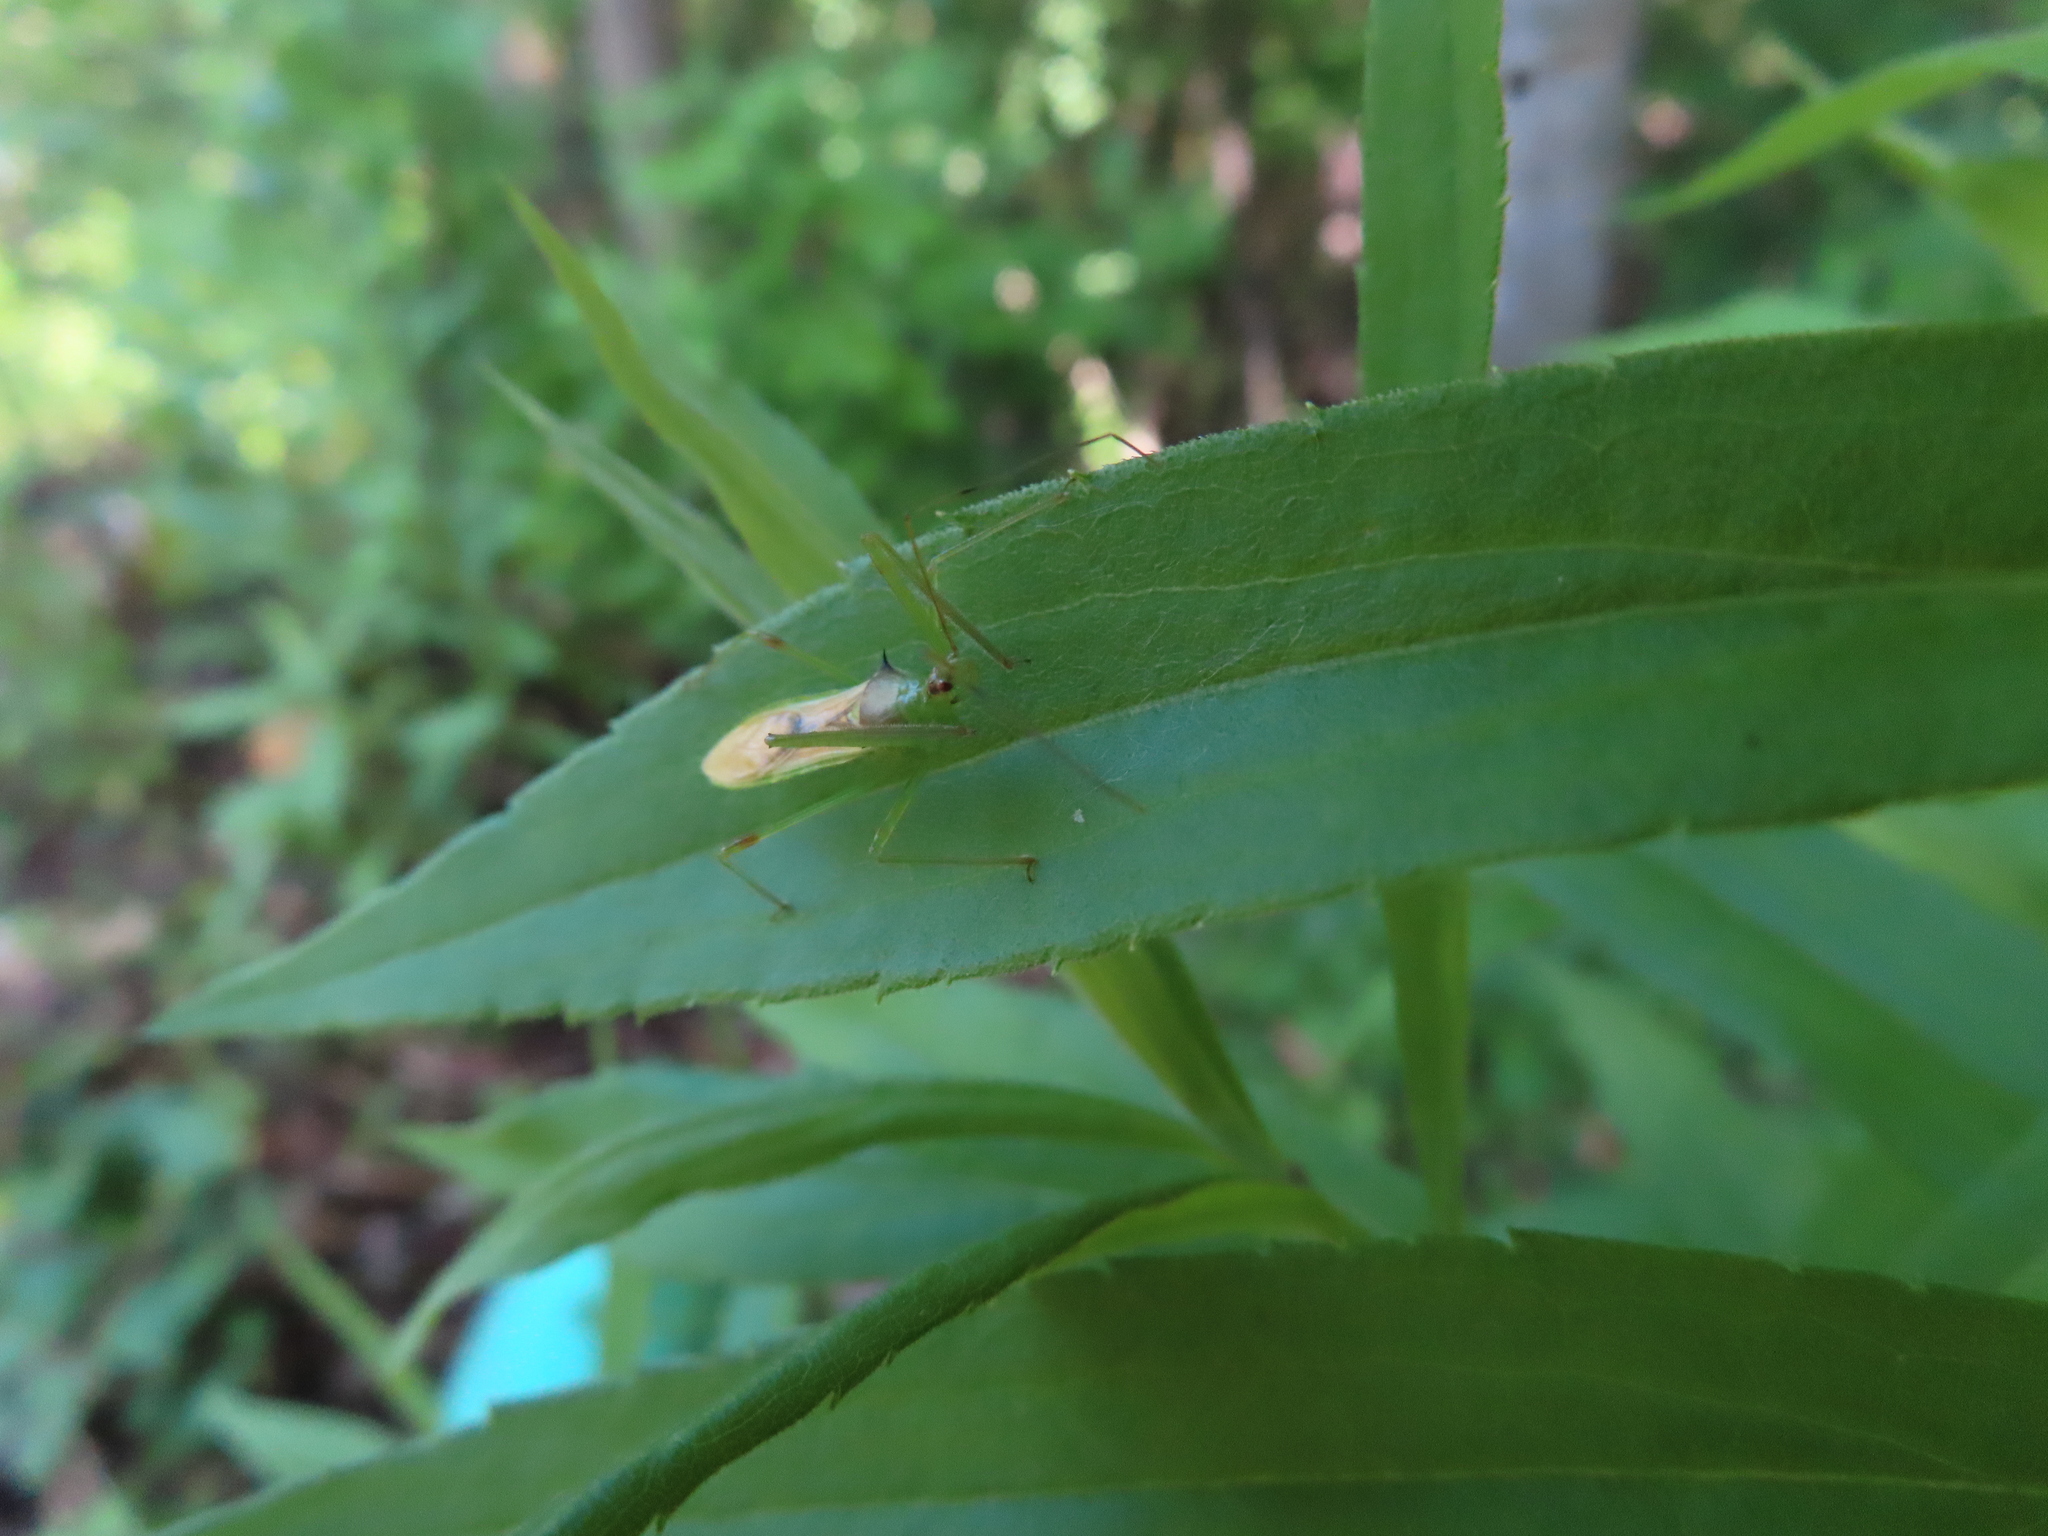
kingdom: Animalia
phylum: Arthropoda
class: Insecta
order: Hemiptera
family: Reduviidae
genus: Zelus
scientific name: Zelus luridus
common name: Pale green assassin bug
